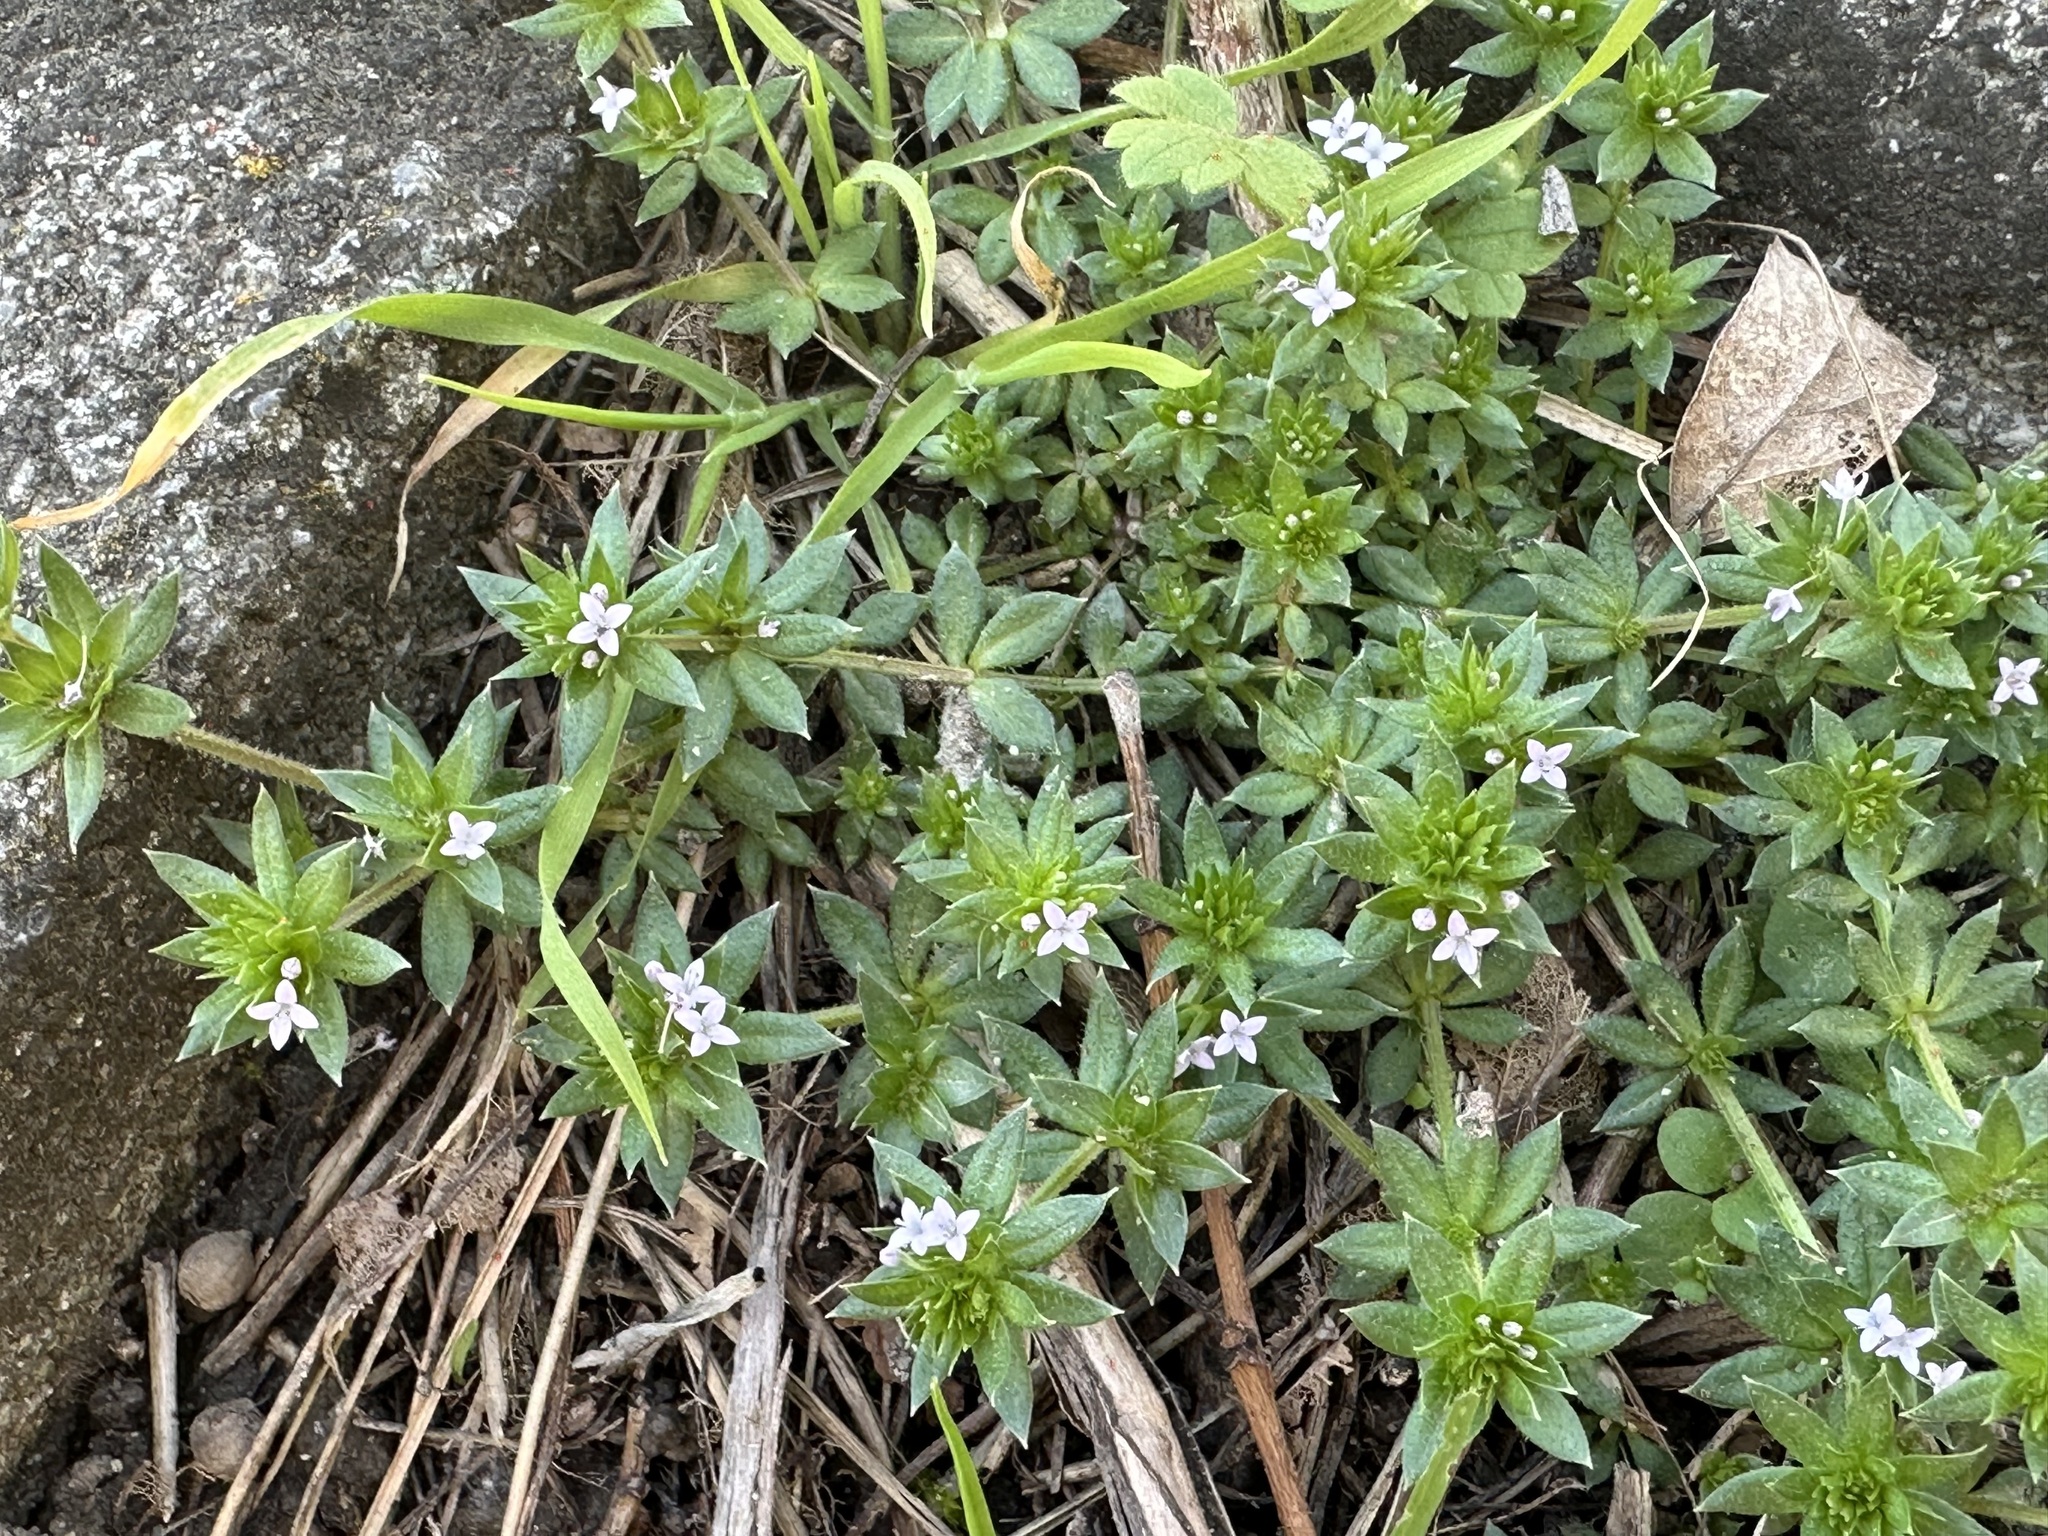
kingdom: Plantae
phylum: Tracheophyta
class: Magnoliopsida
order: Gentianales
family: Rubiaceae
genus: Sherardia
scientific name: Sherardia arvensis
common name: Field madder
